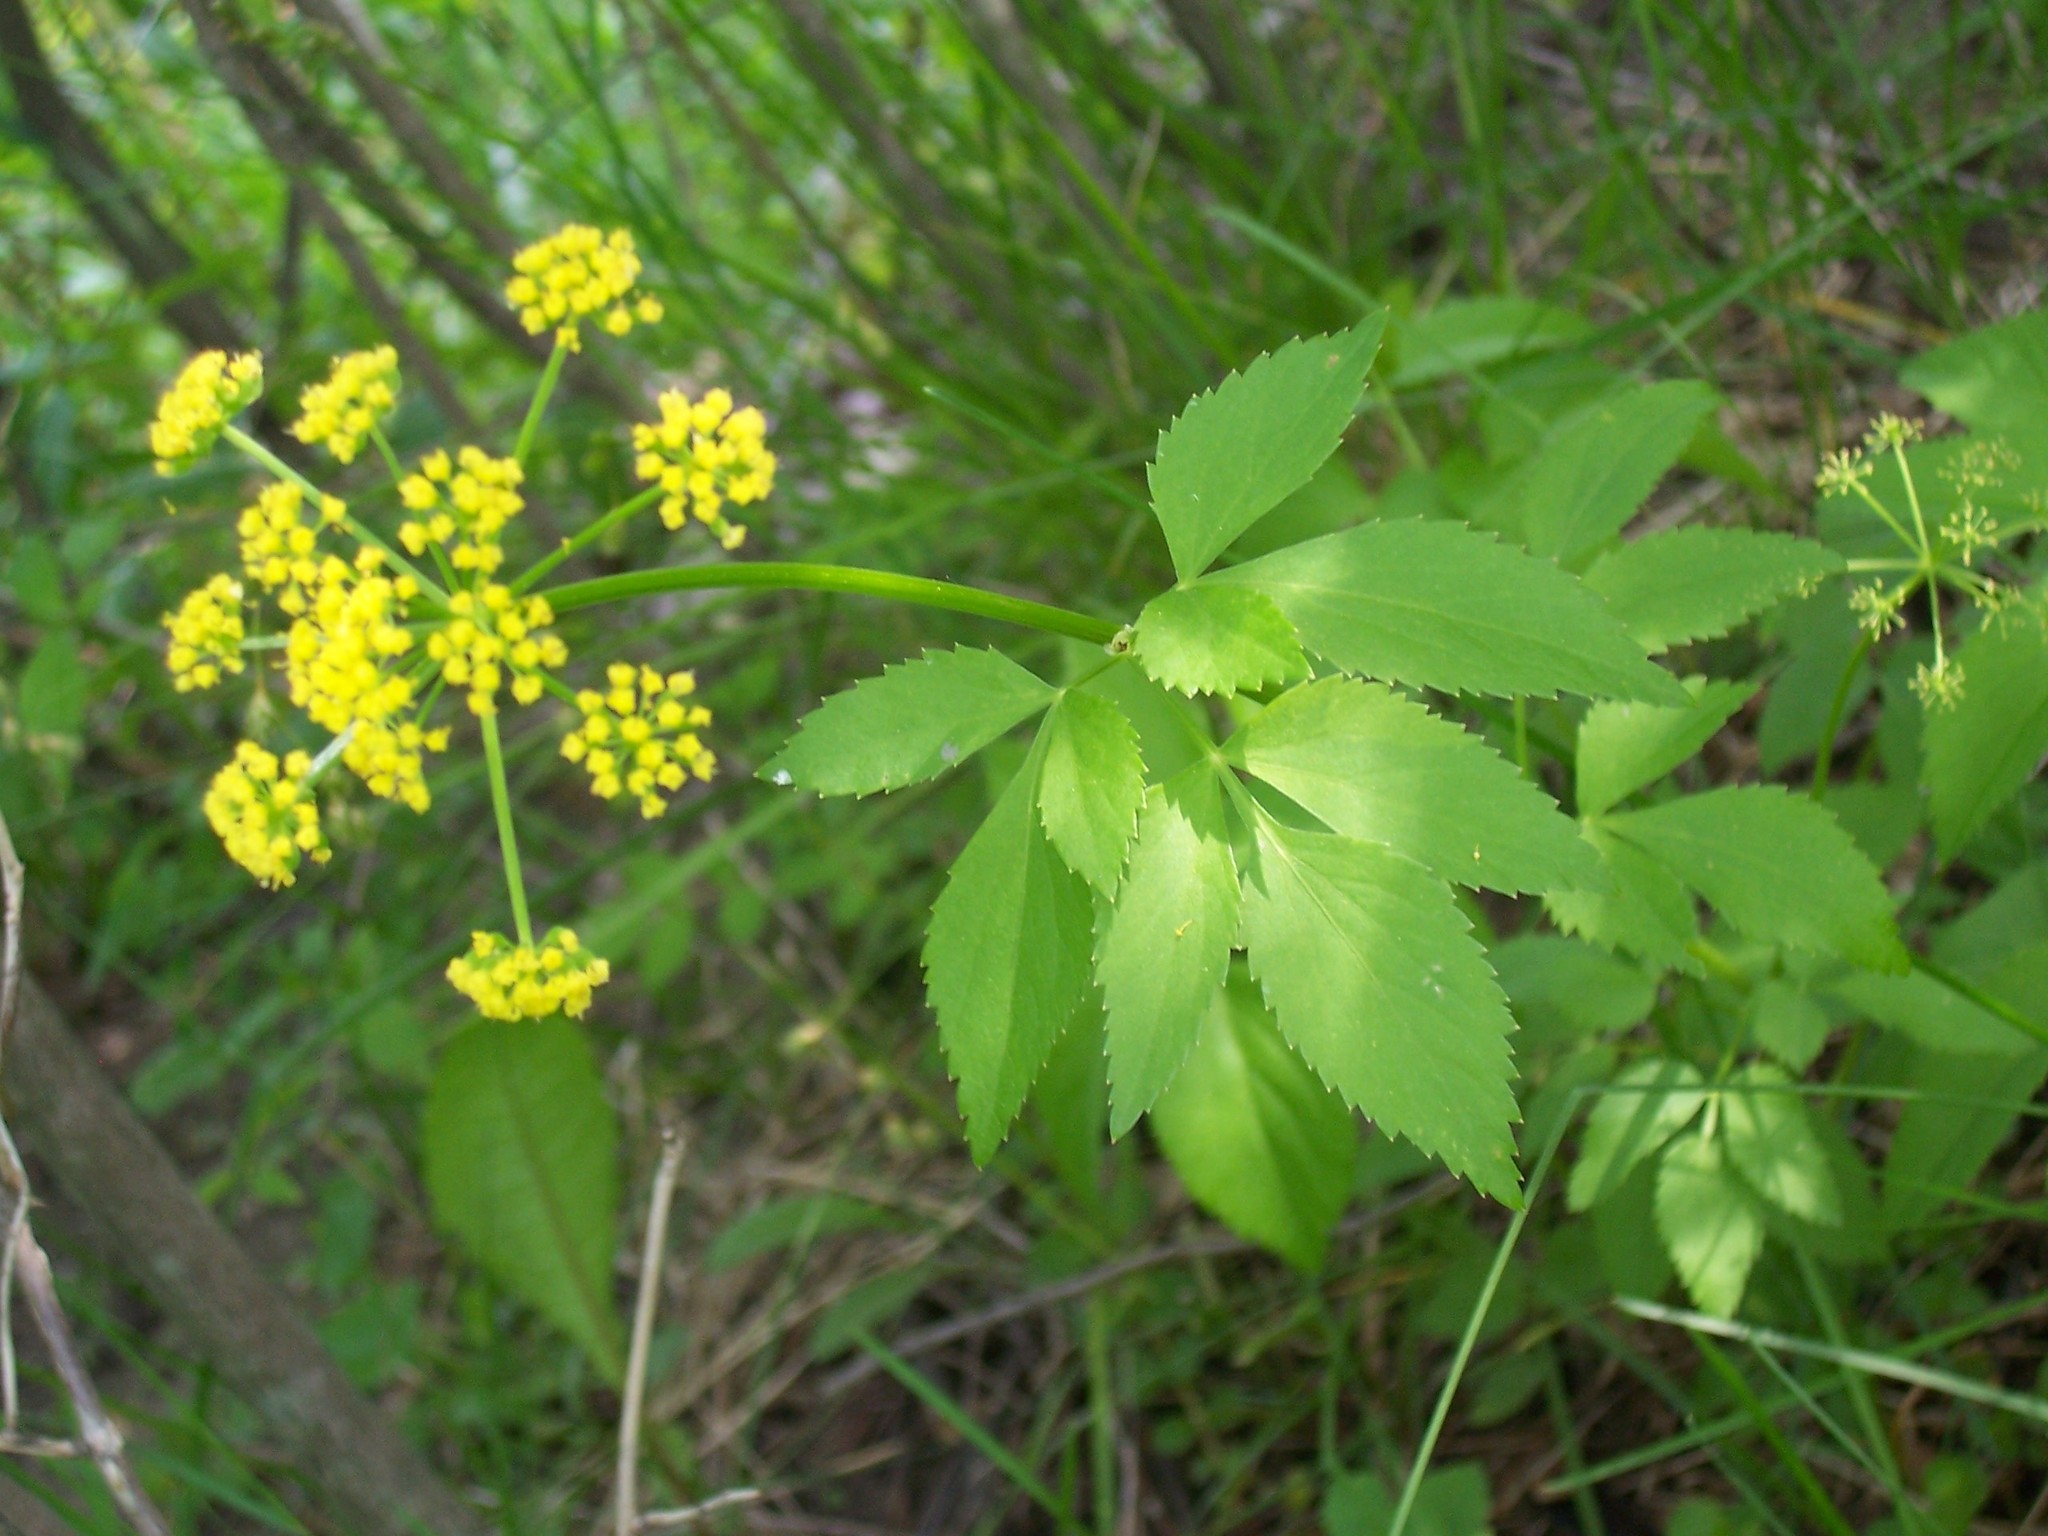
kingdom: Plantae
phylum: Tracheophyta
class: Magnoliopsida
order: Apiales
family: Apiaceae
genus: Zizia
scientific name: Zizia aurea
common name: Golden alexanders
